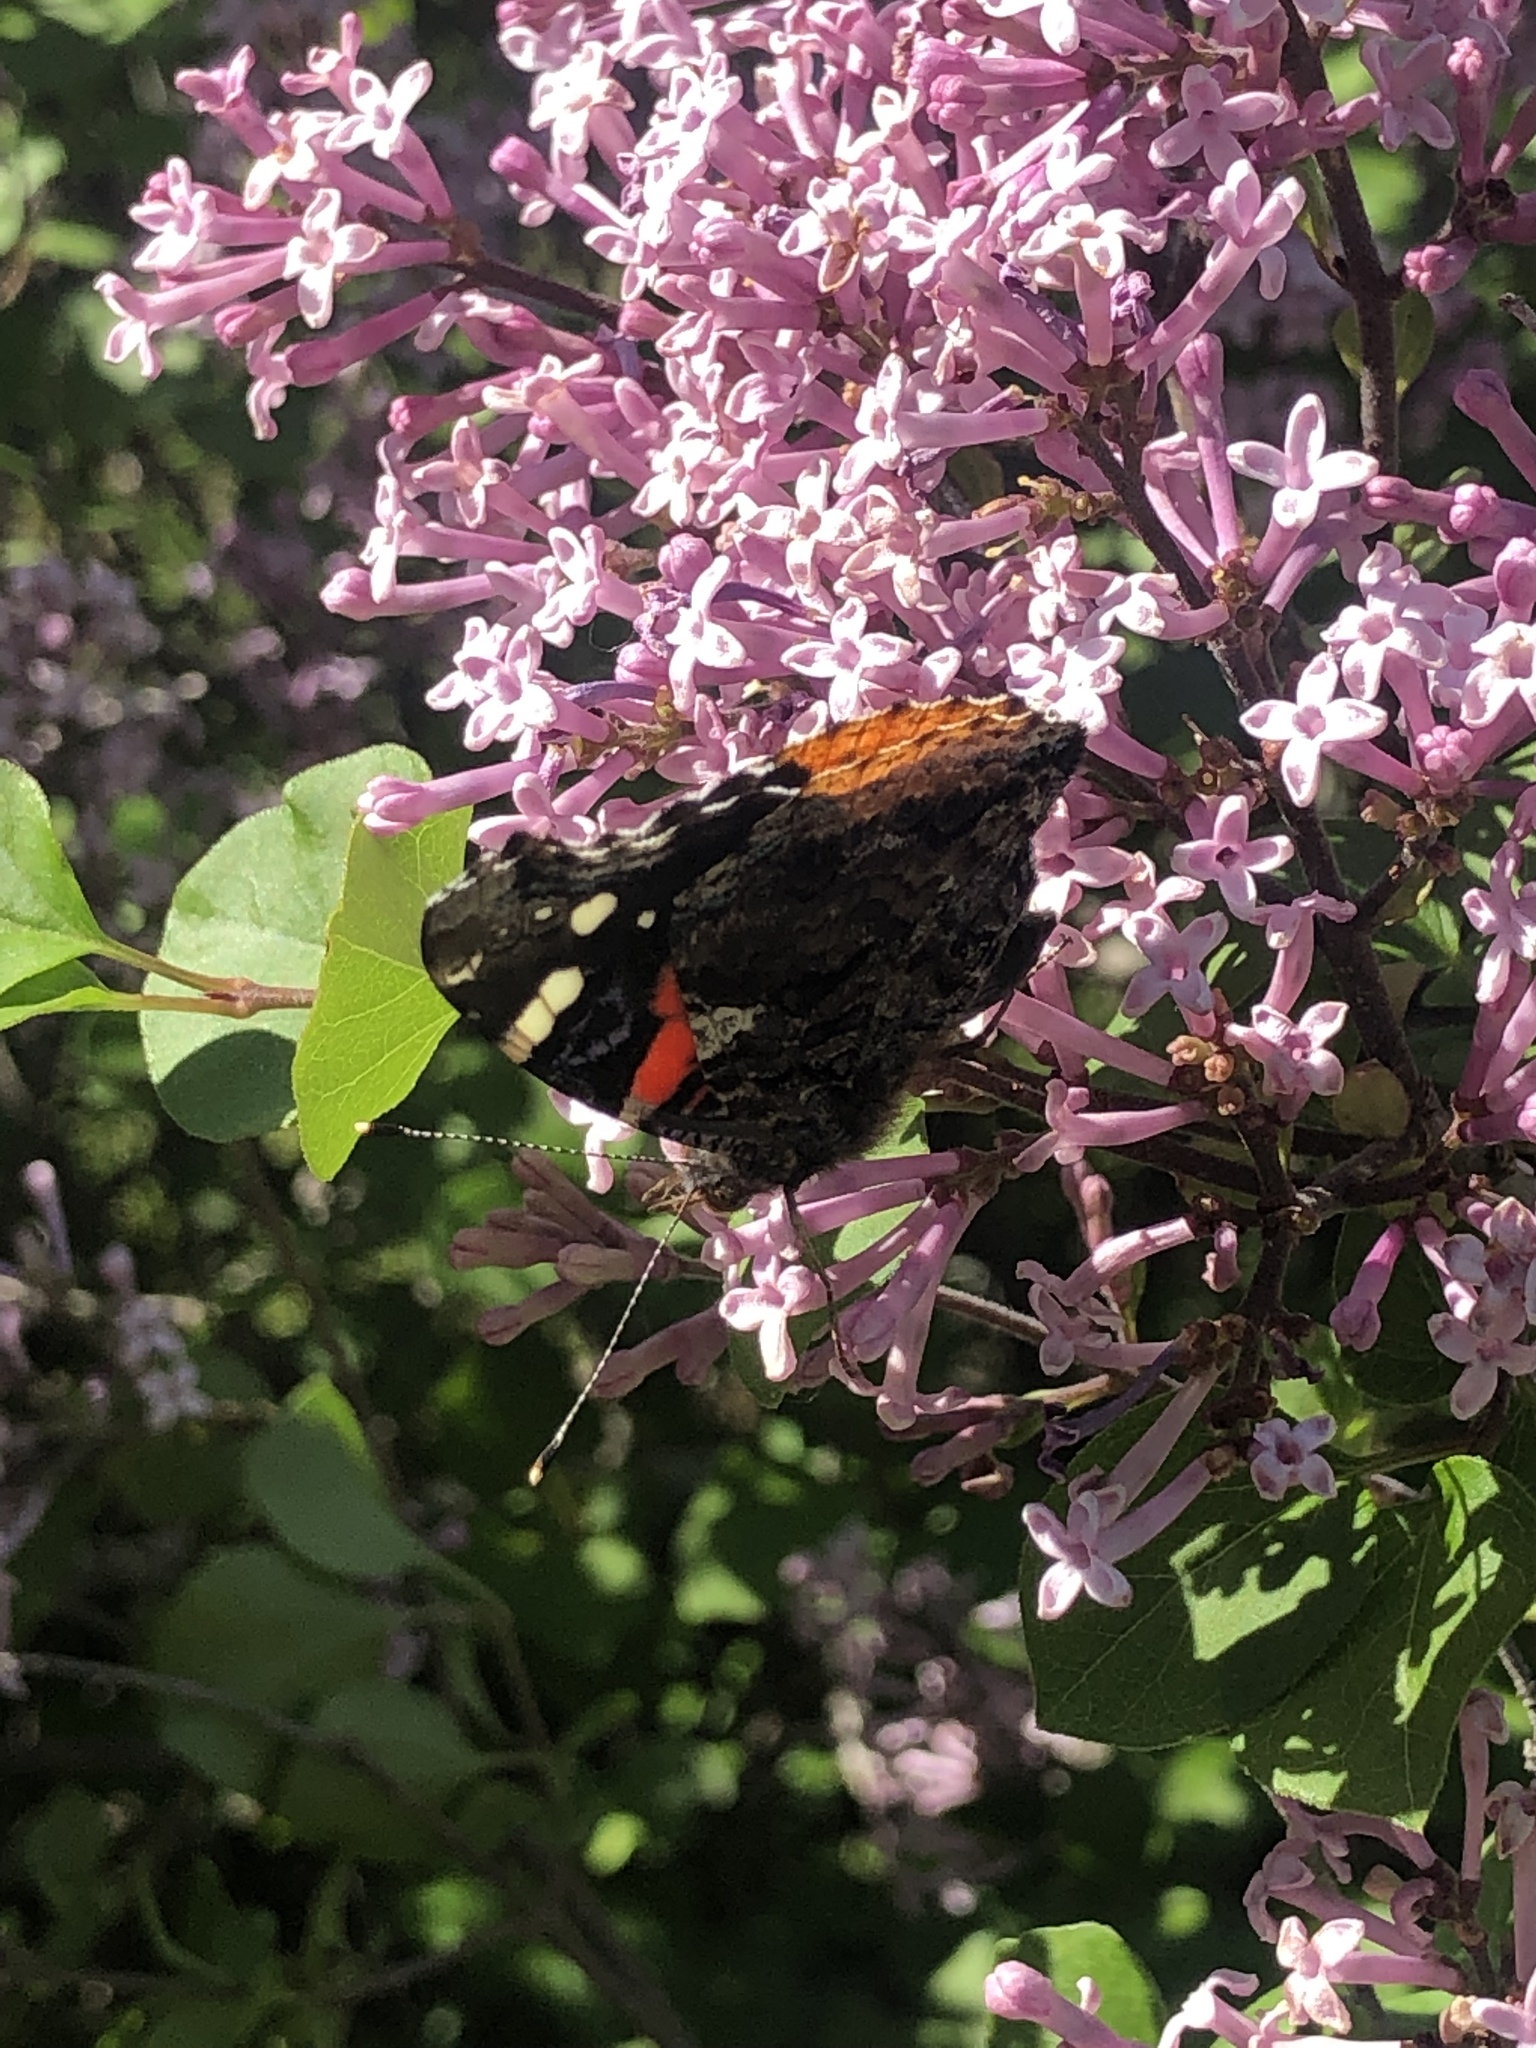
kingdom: Animalia
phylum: Arthropoda
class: Insecta
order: Lepidoptera
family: Nymphalidae
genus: Vanessa
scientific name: Vanessa atalanta
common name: Red admiral
